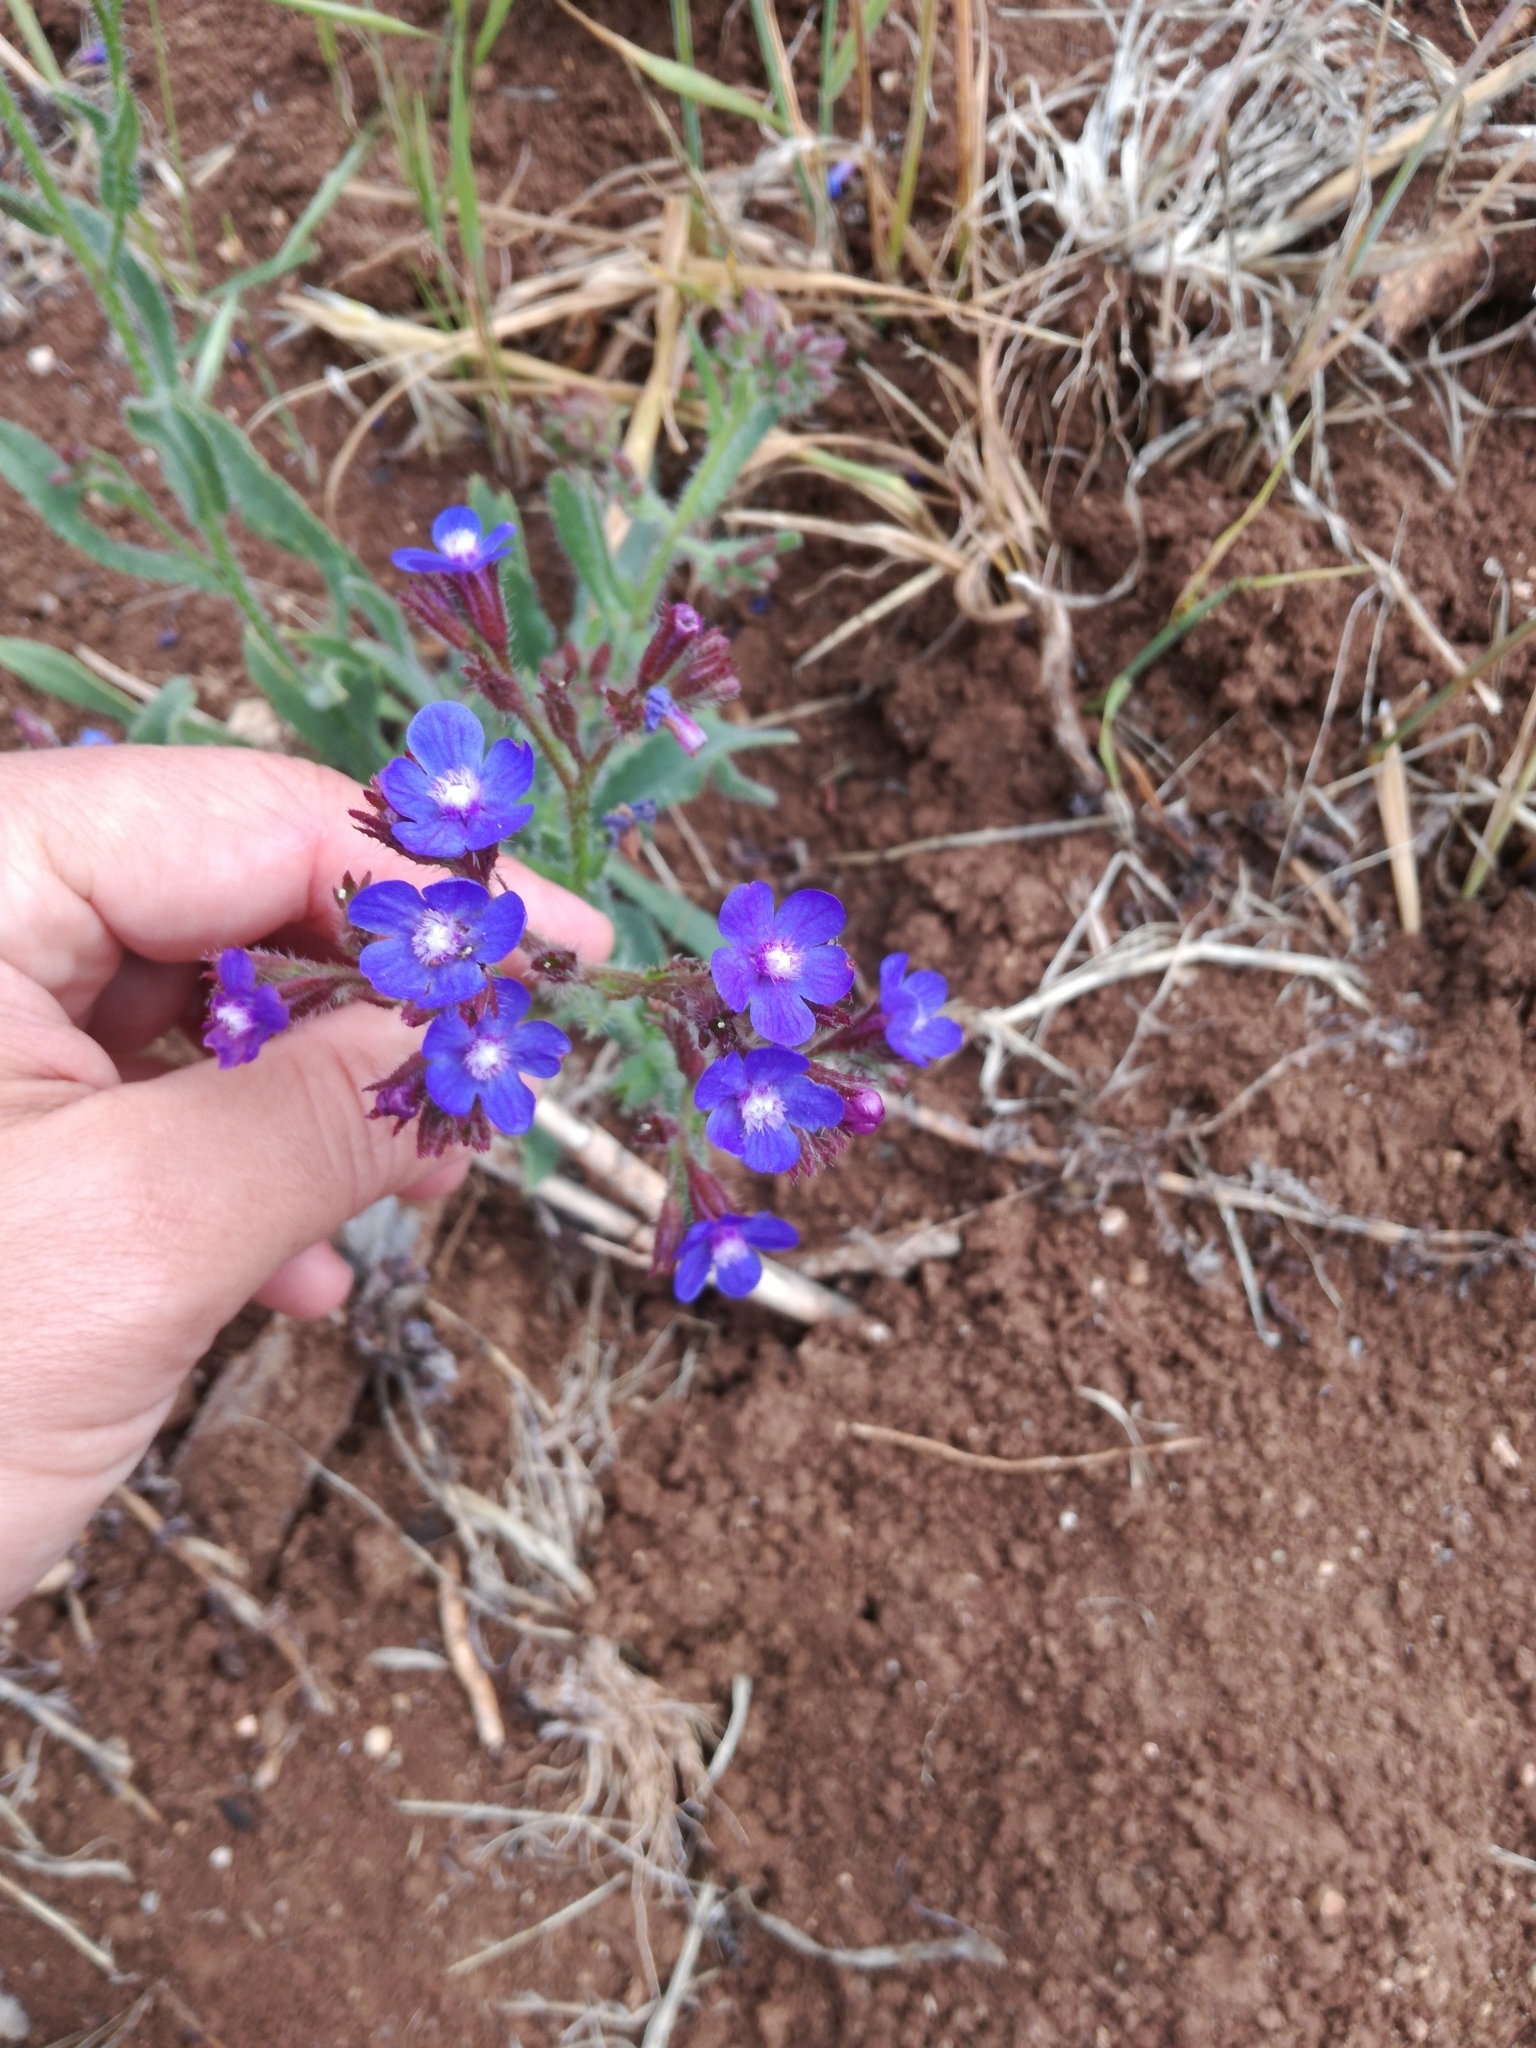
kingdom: Plantae
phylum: Tracheophyta
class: Magnoliopsida
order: Boraginales
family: Boraginaceae
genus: Anchusa
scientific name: Anchusa azurea
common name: Garden anchusa
